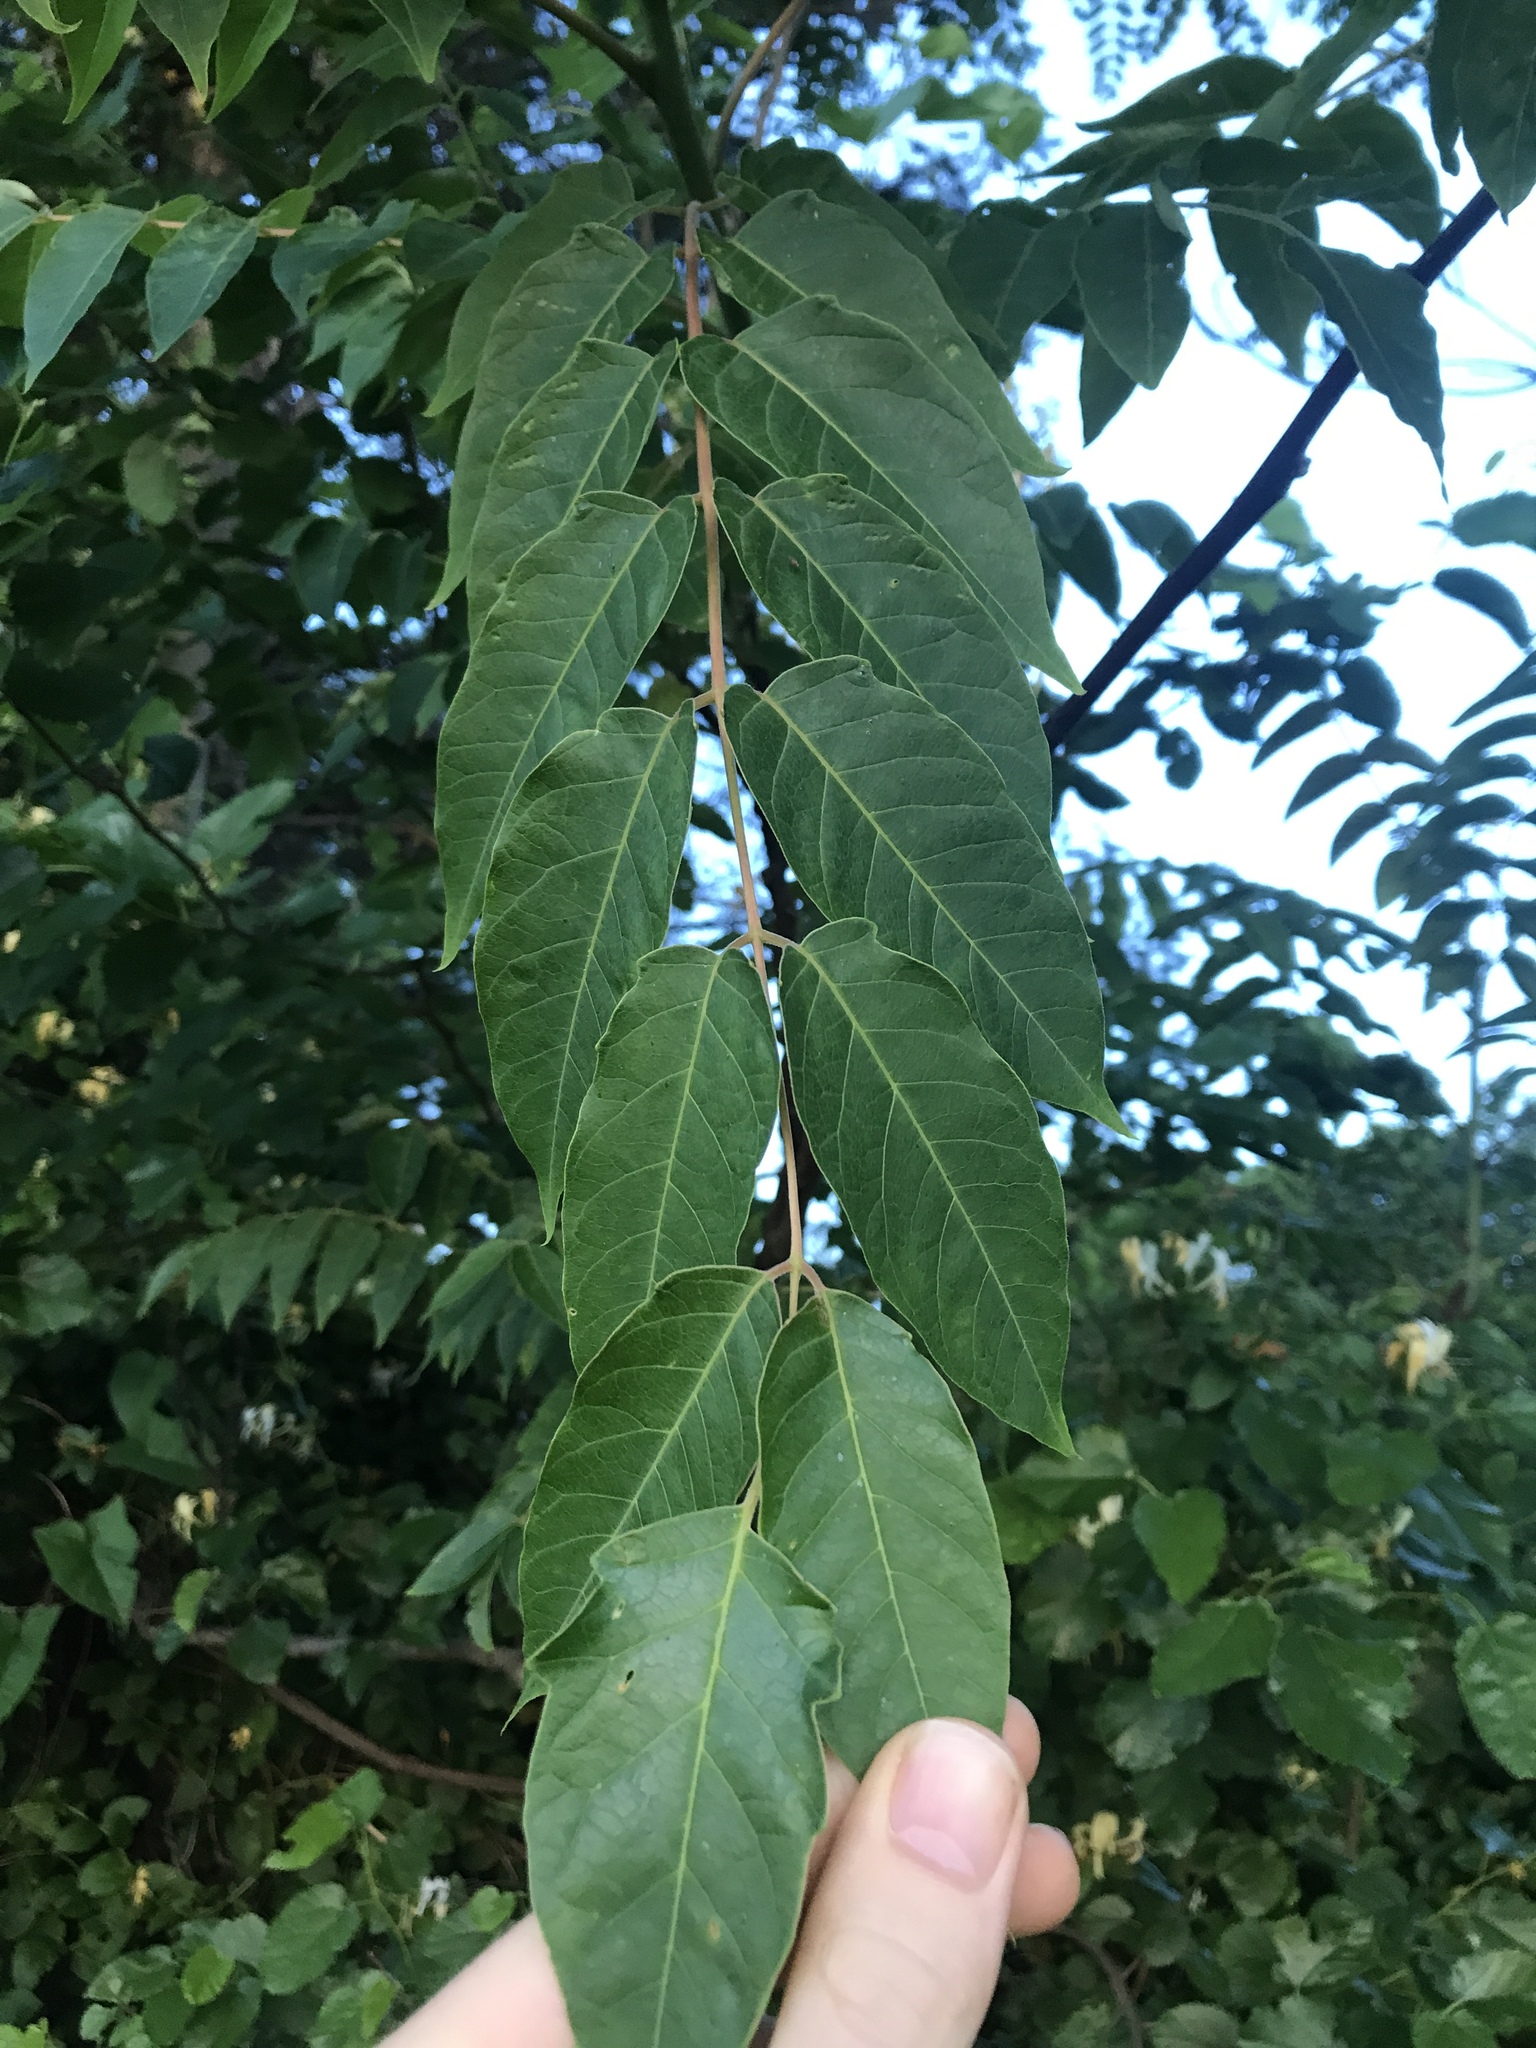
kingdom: Plantae
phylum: Tracheophyta
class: Magnoliopsida
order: Sapindales
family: Simaroubaceae
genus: Ailanthus
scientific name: Ailanthus altissima
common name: Tree-of-heaven
